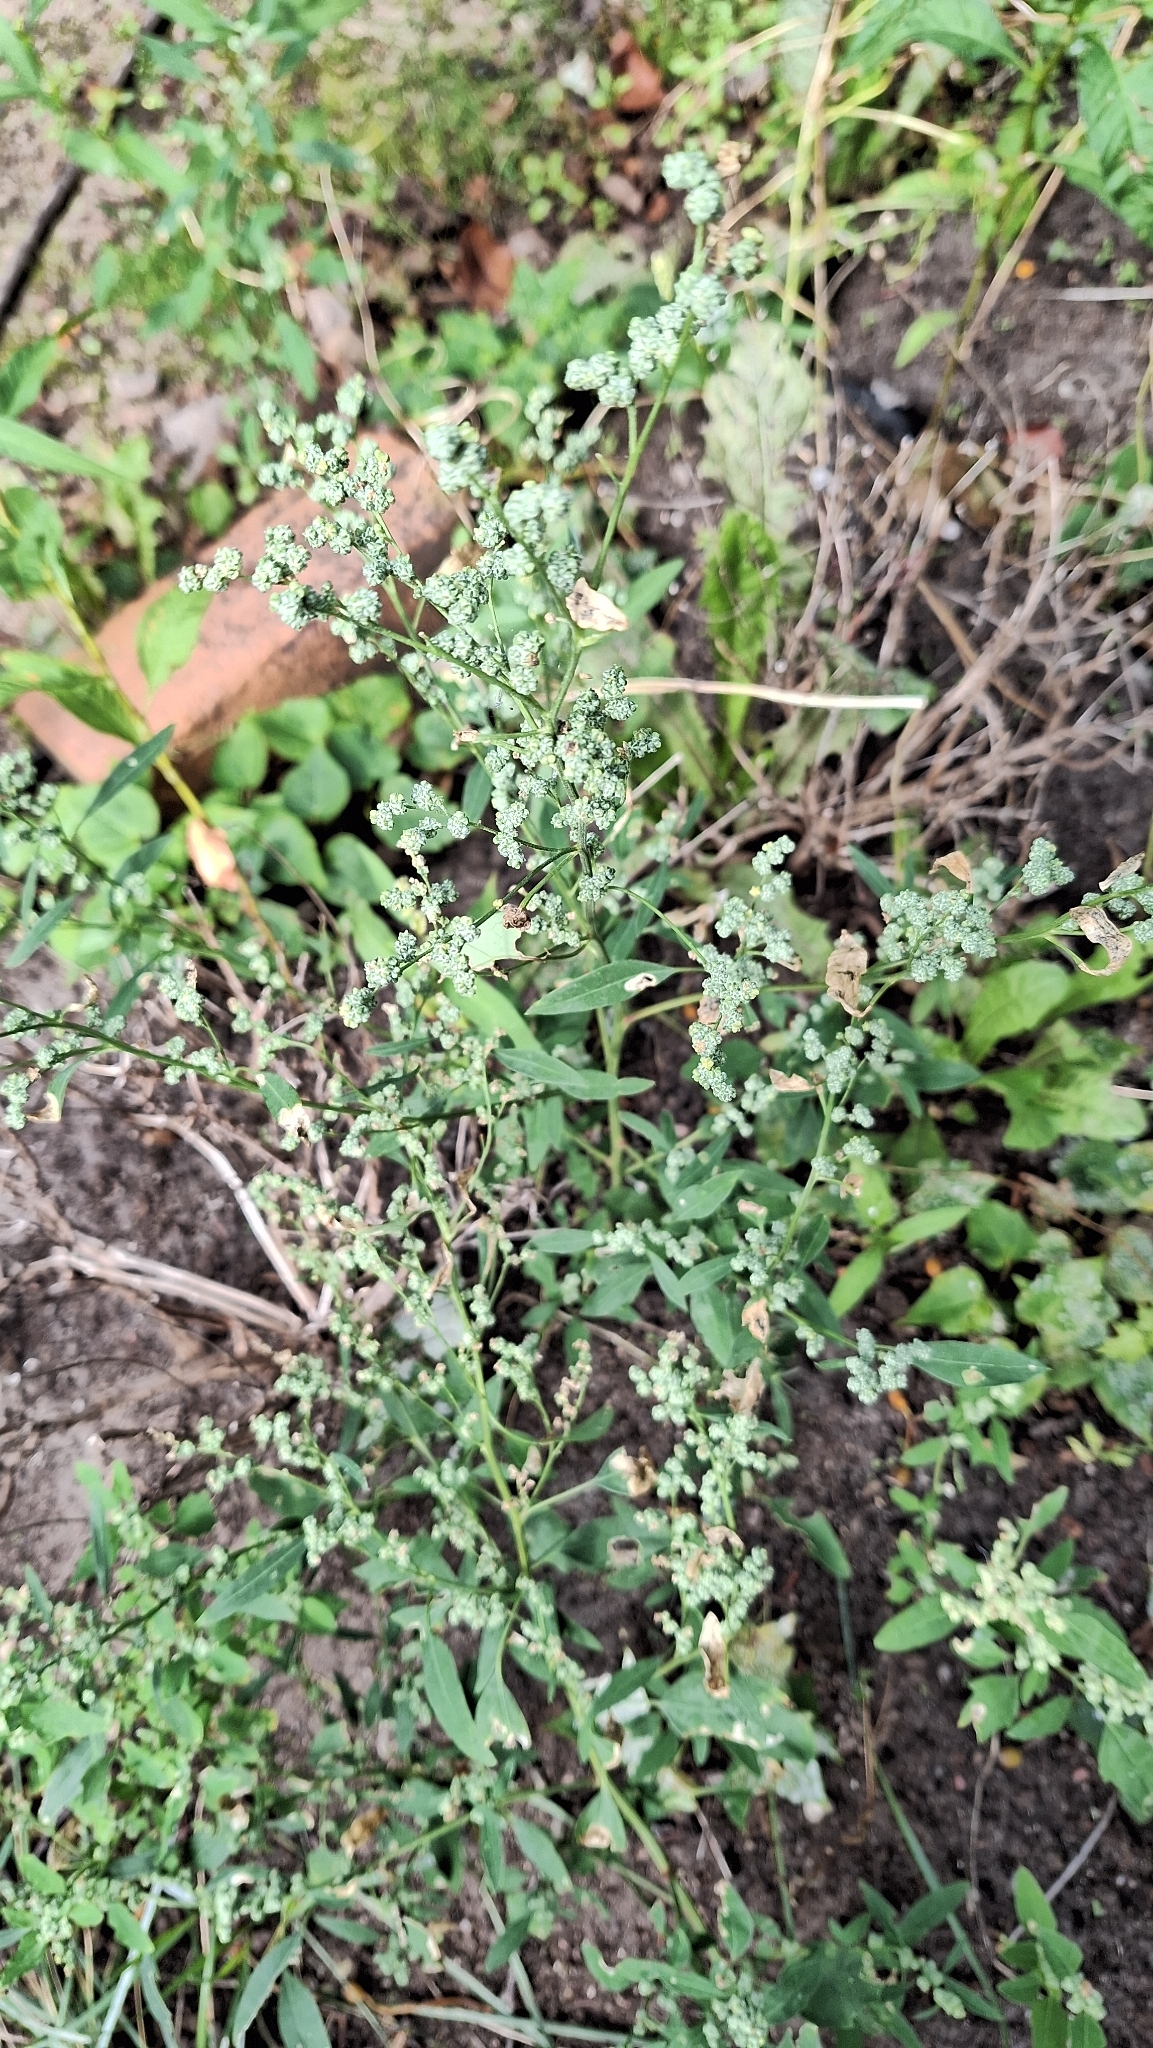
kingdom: Plantae
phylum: Tracheophyta
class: Magnoliopsida
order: Caryophyllales
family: Amaranthaceae
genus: Chenopodium
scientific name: Chenopodium album
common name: Fat-hen
